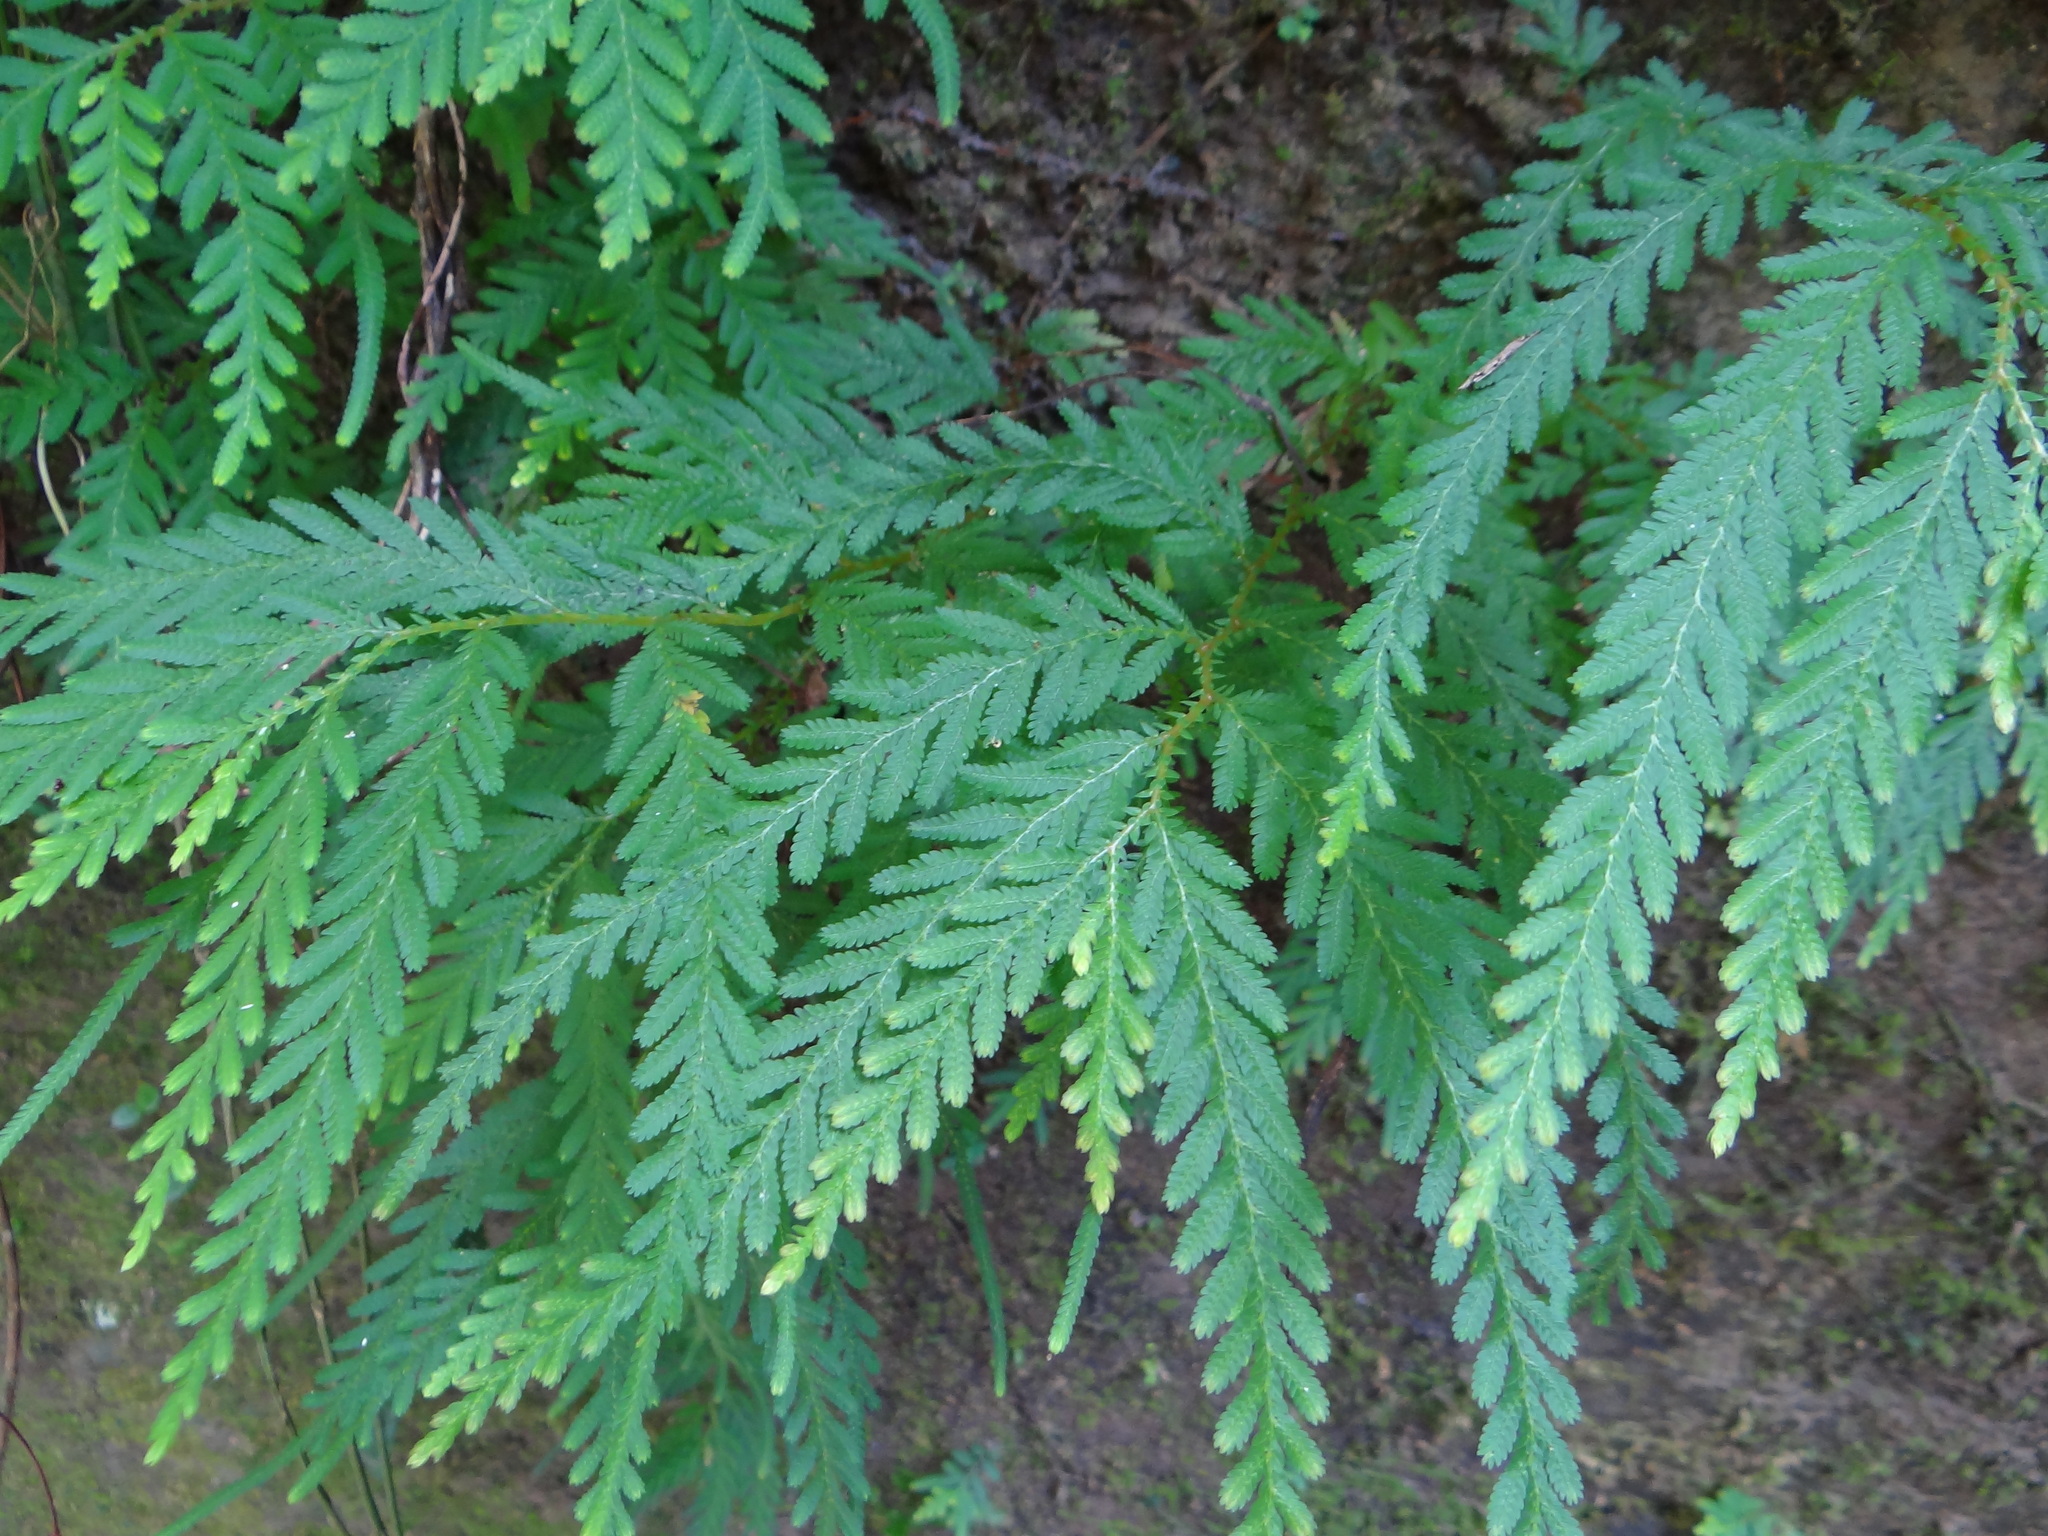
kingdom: Plantae
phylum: Tracheophyta
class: Lycopodiopsida
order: Selaginellales
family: Selaginellaceae
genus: Selaginella
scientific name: Selaginella delicatula
